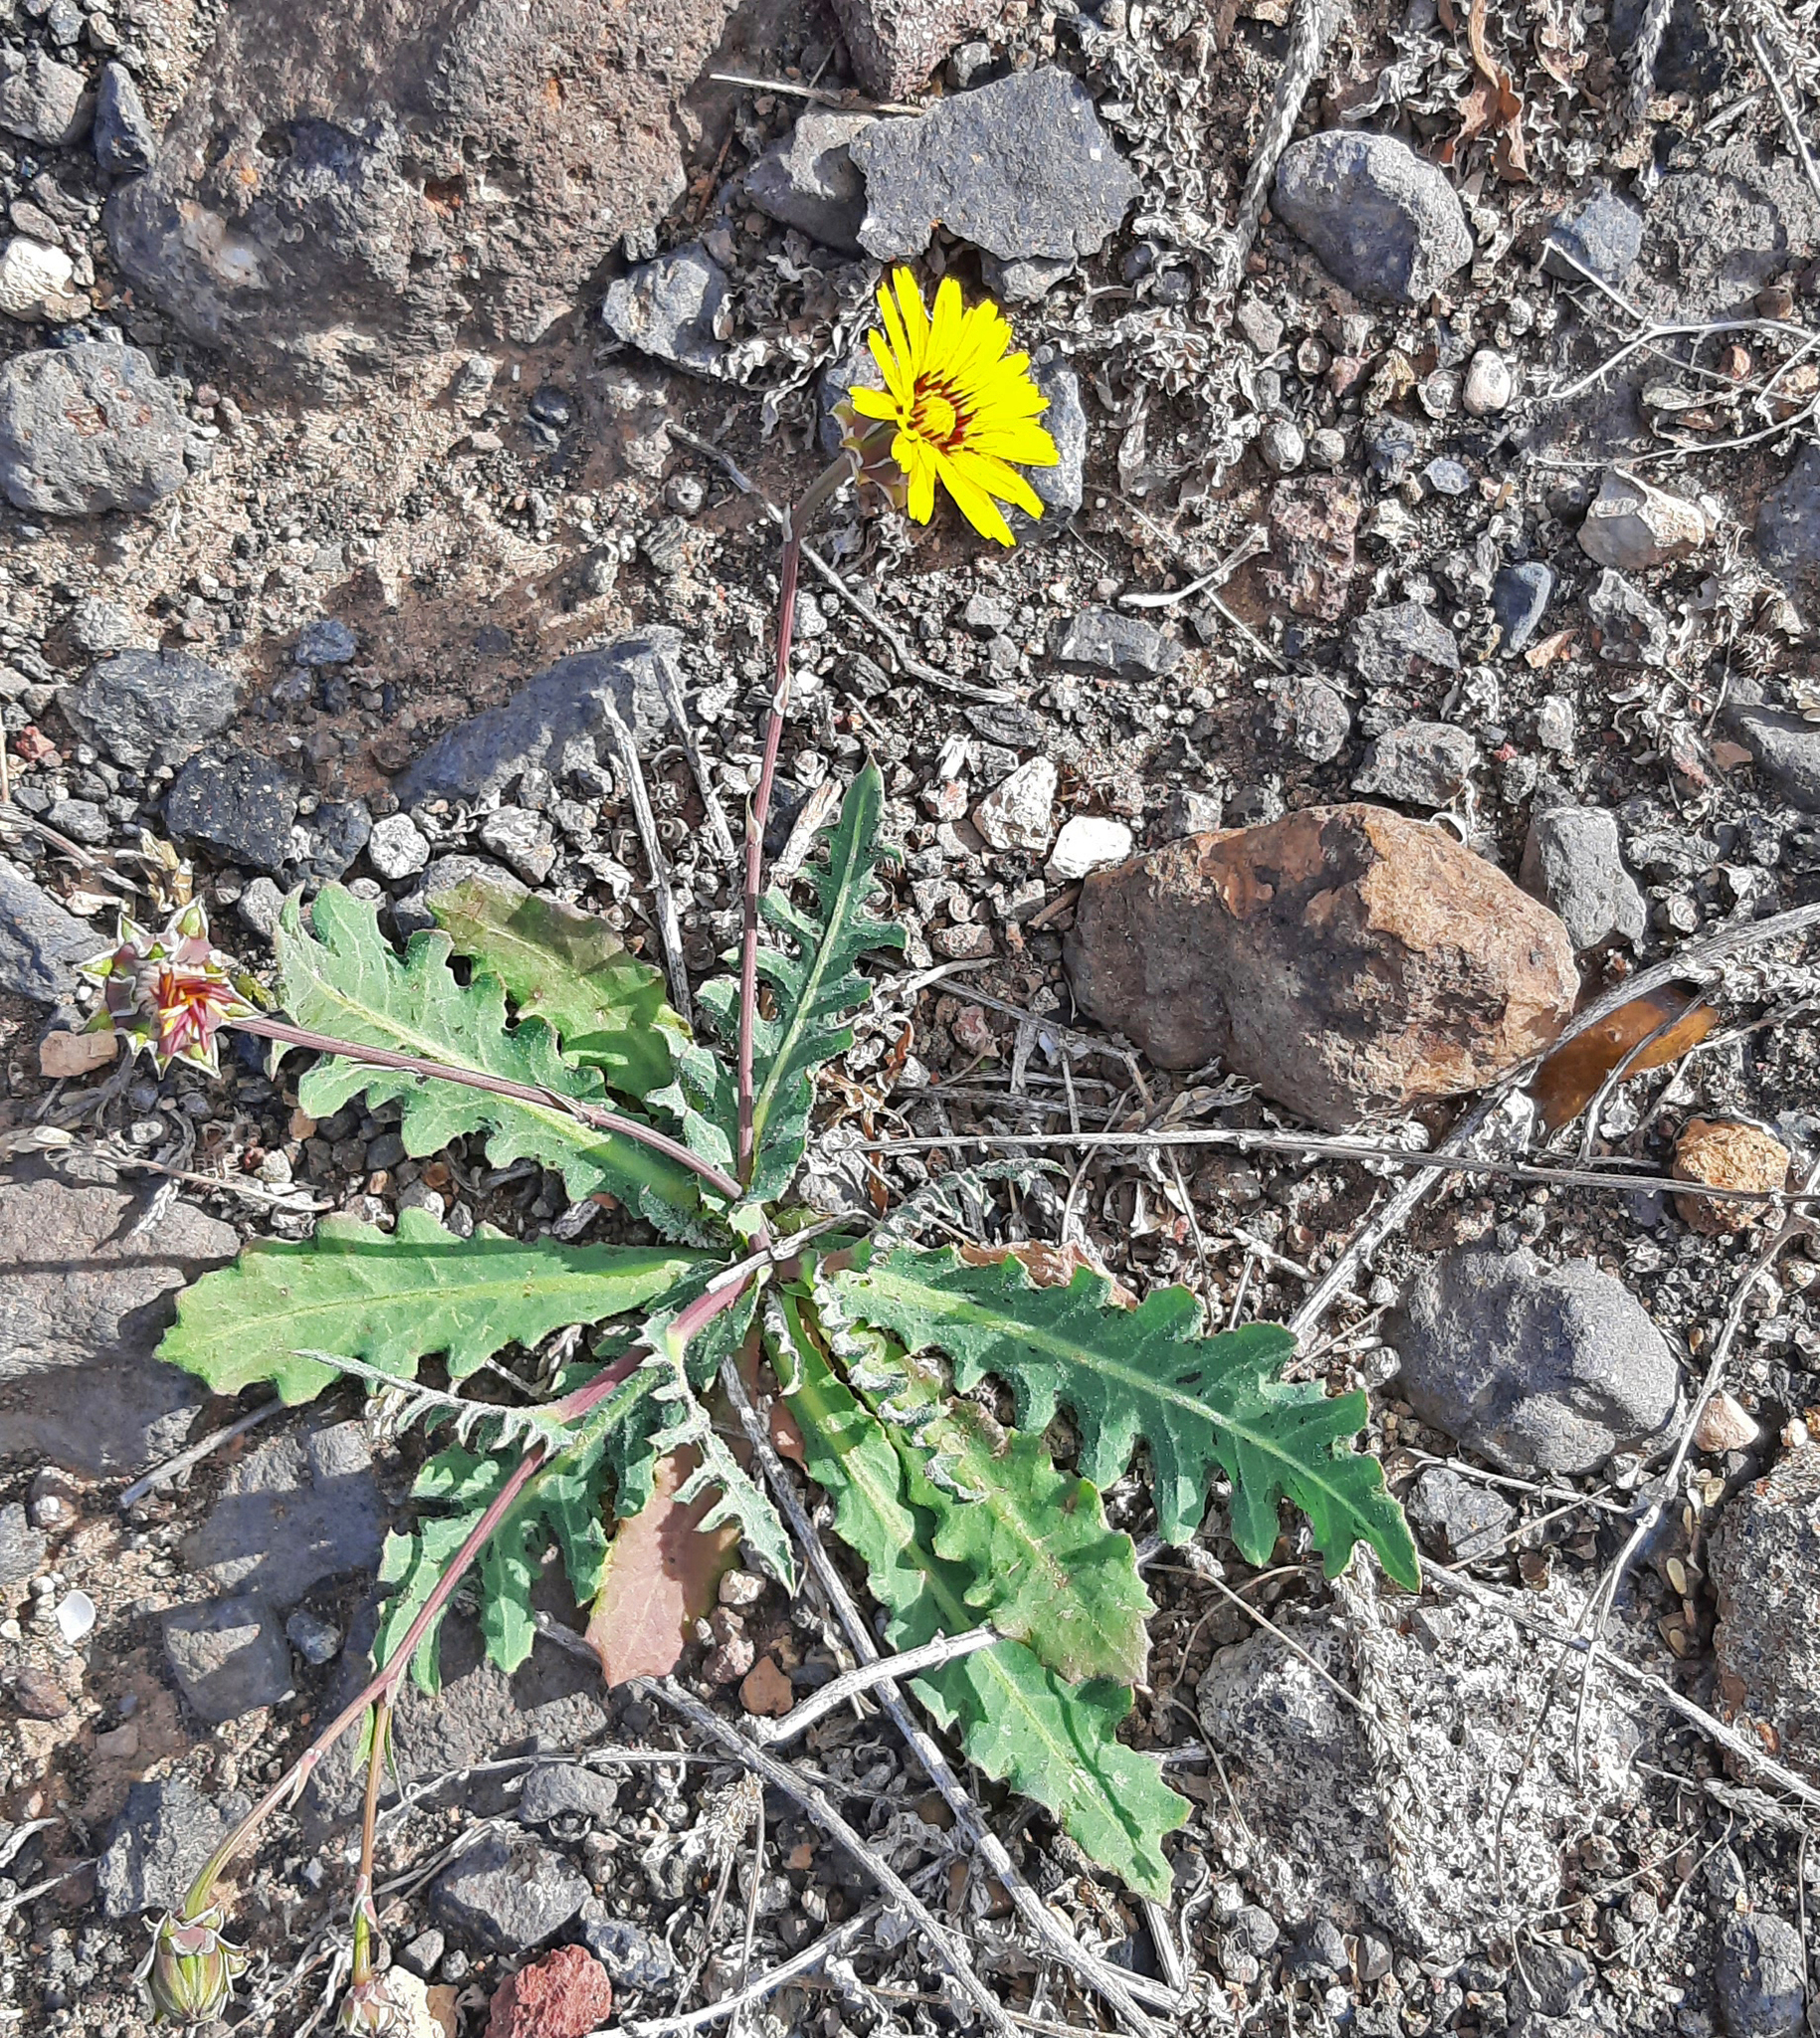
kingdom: Plantae
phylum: Tracheophyta
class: Magnoliopsida
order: Asterales
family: Asteraceae
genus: Reichardia
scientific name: Reichardia tingitana
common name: Reichardia
